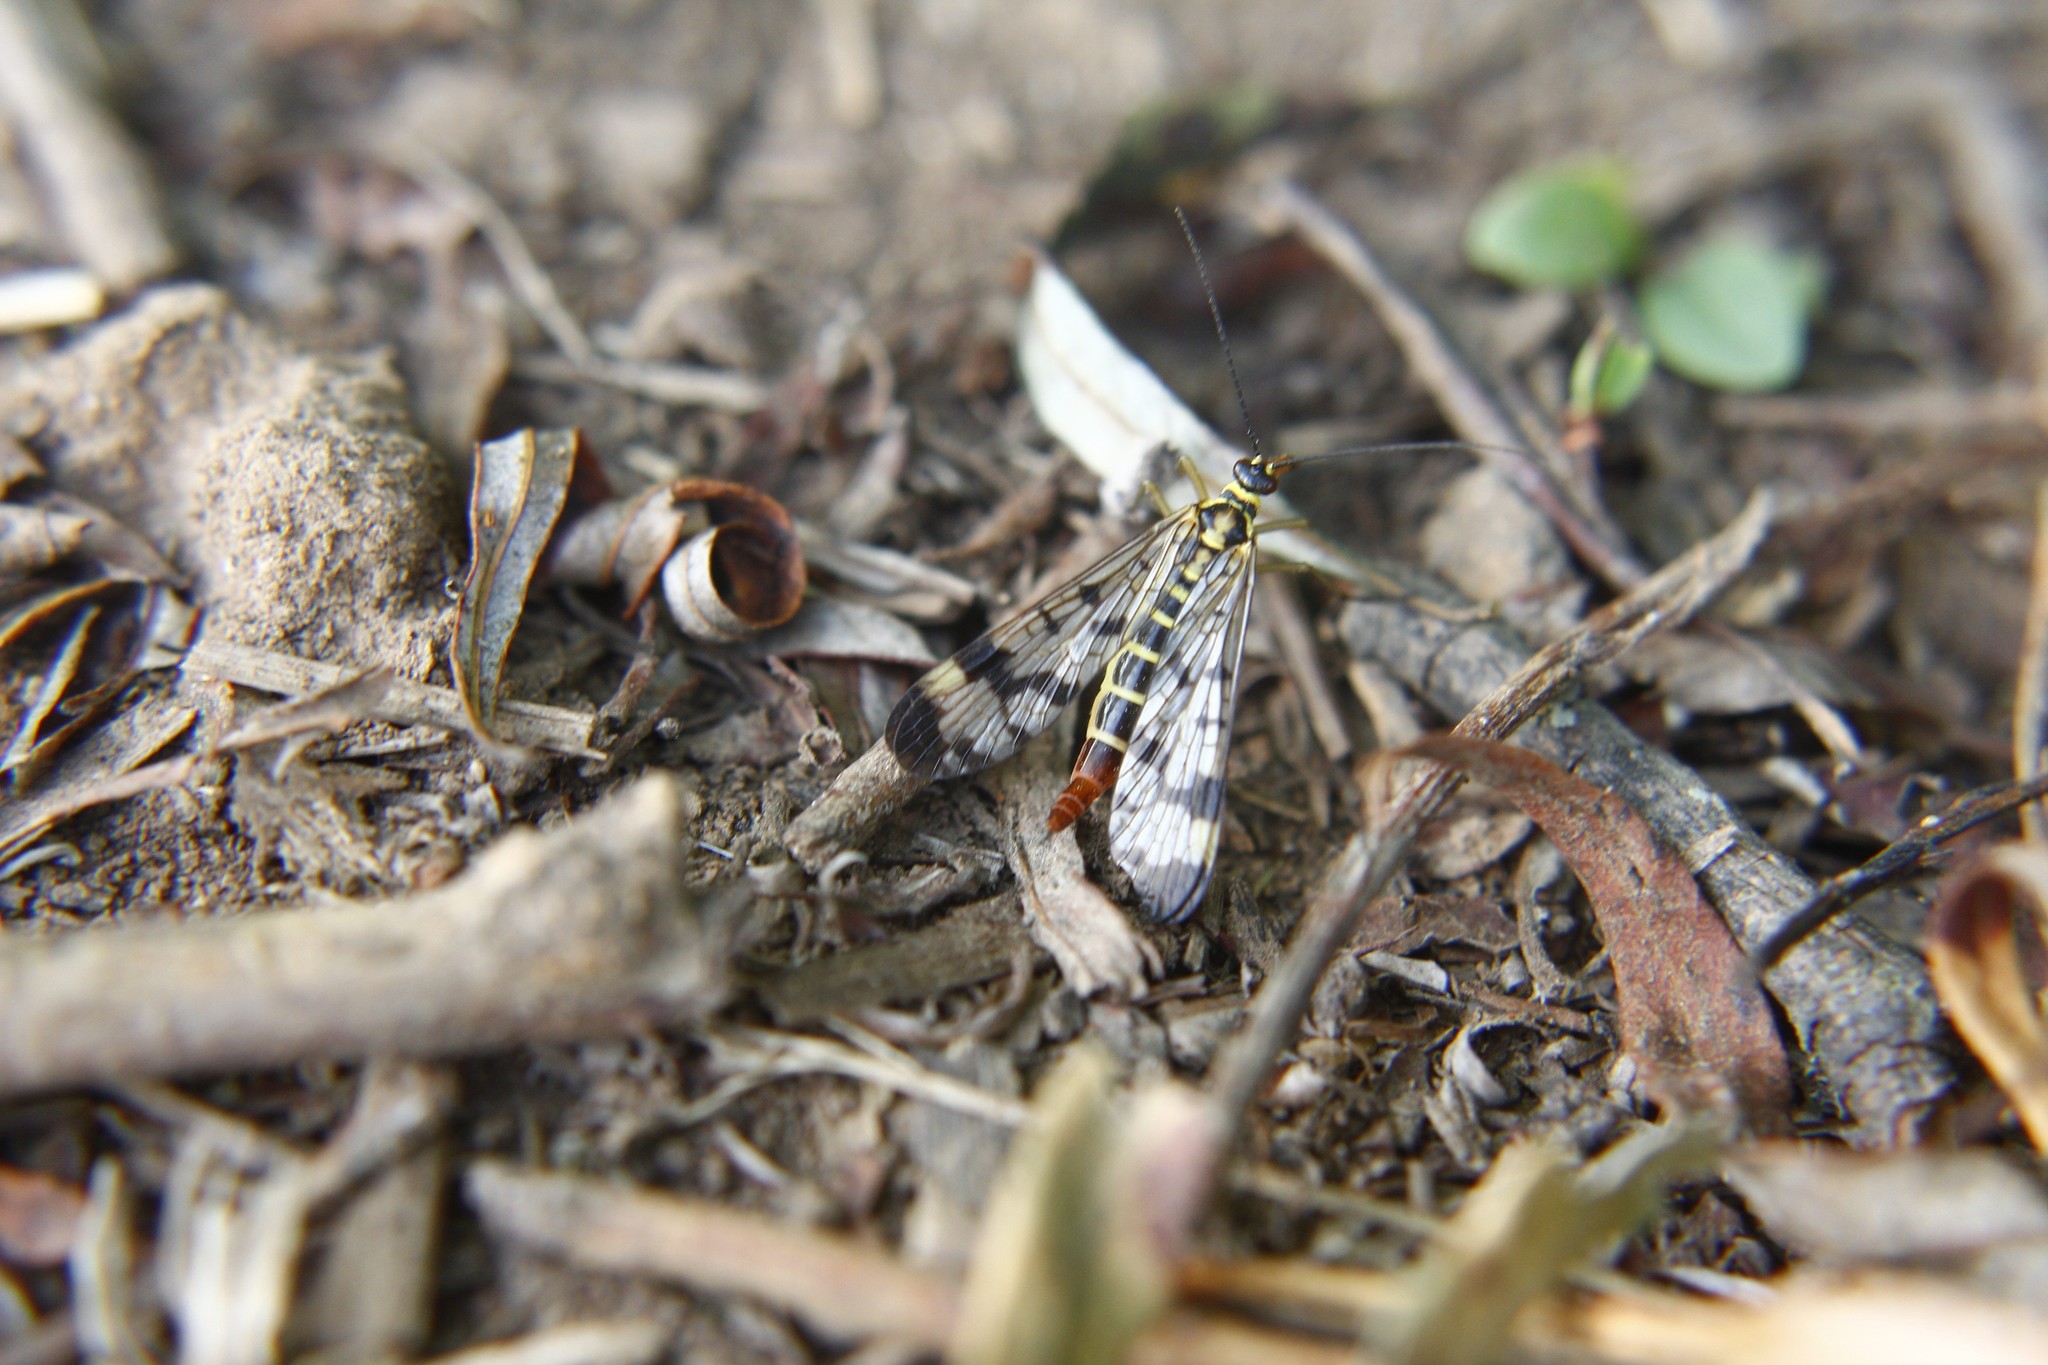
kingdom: Animalia
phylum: Arthropoda
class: Insecta
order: Mecoptera
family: Panorpidae
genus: Panorpa
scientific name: Panorpa communis
